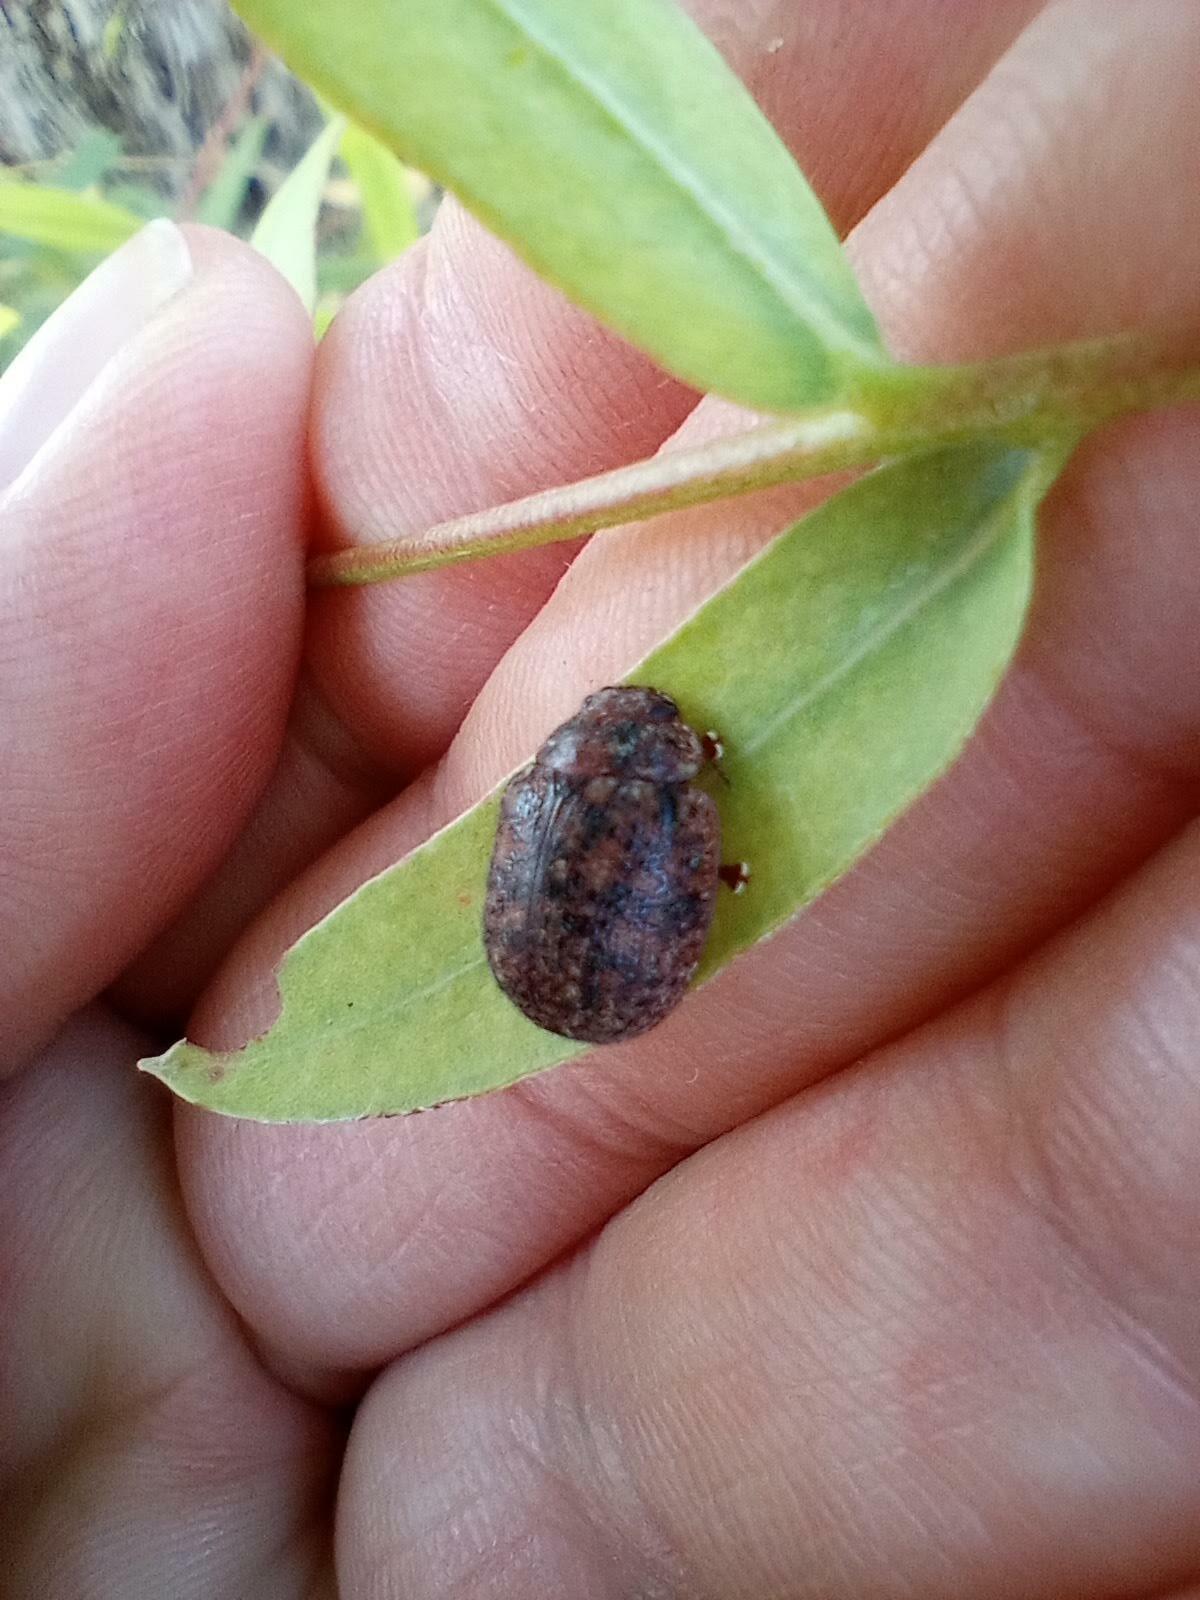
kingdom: Animalia
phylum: Arthropoda
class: Insecta
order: Coleoptera
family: Chrysomelidae
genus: Trachymela
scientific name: Trachymela sloanei
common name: Australian tortoise beetle
